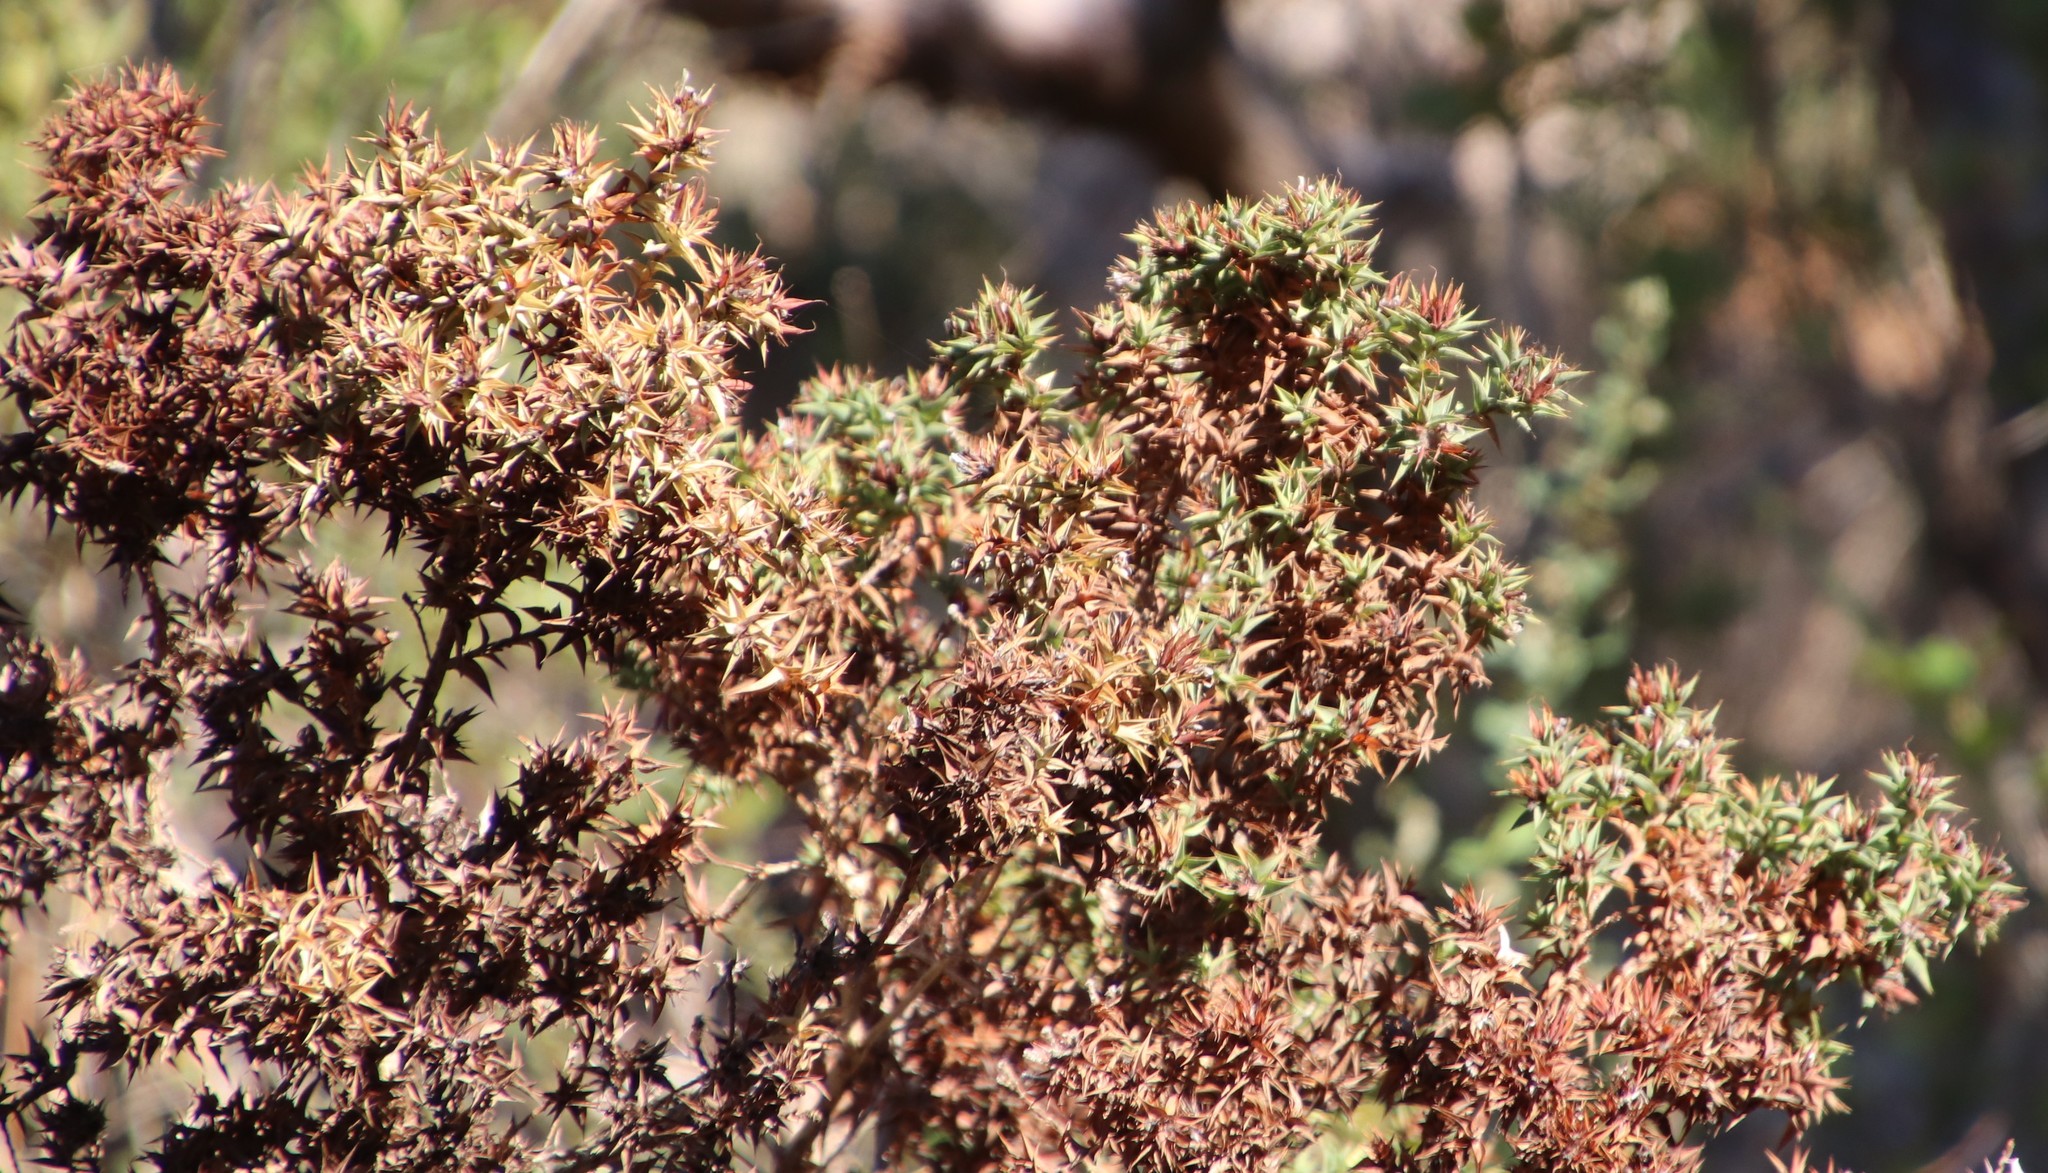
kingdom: Plantae
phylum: Tracheophyta
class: Magnoliopsida
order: Fabales
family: Fabaceae
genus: Aspalathus
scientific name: Aspalathus cordata
